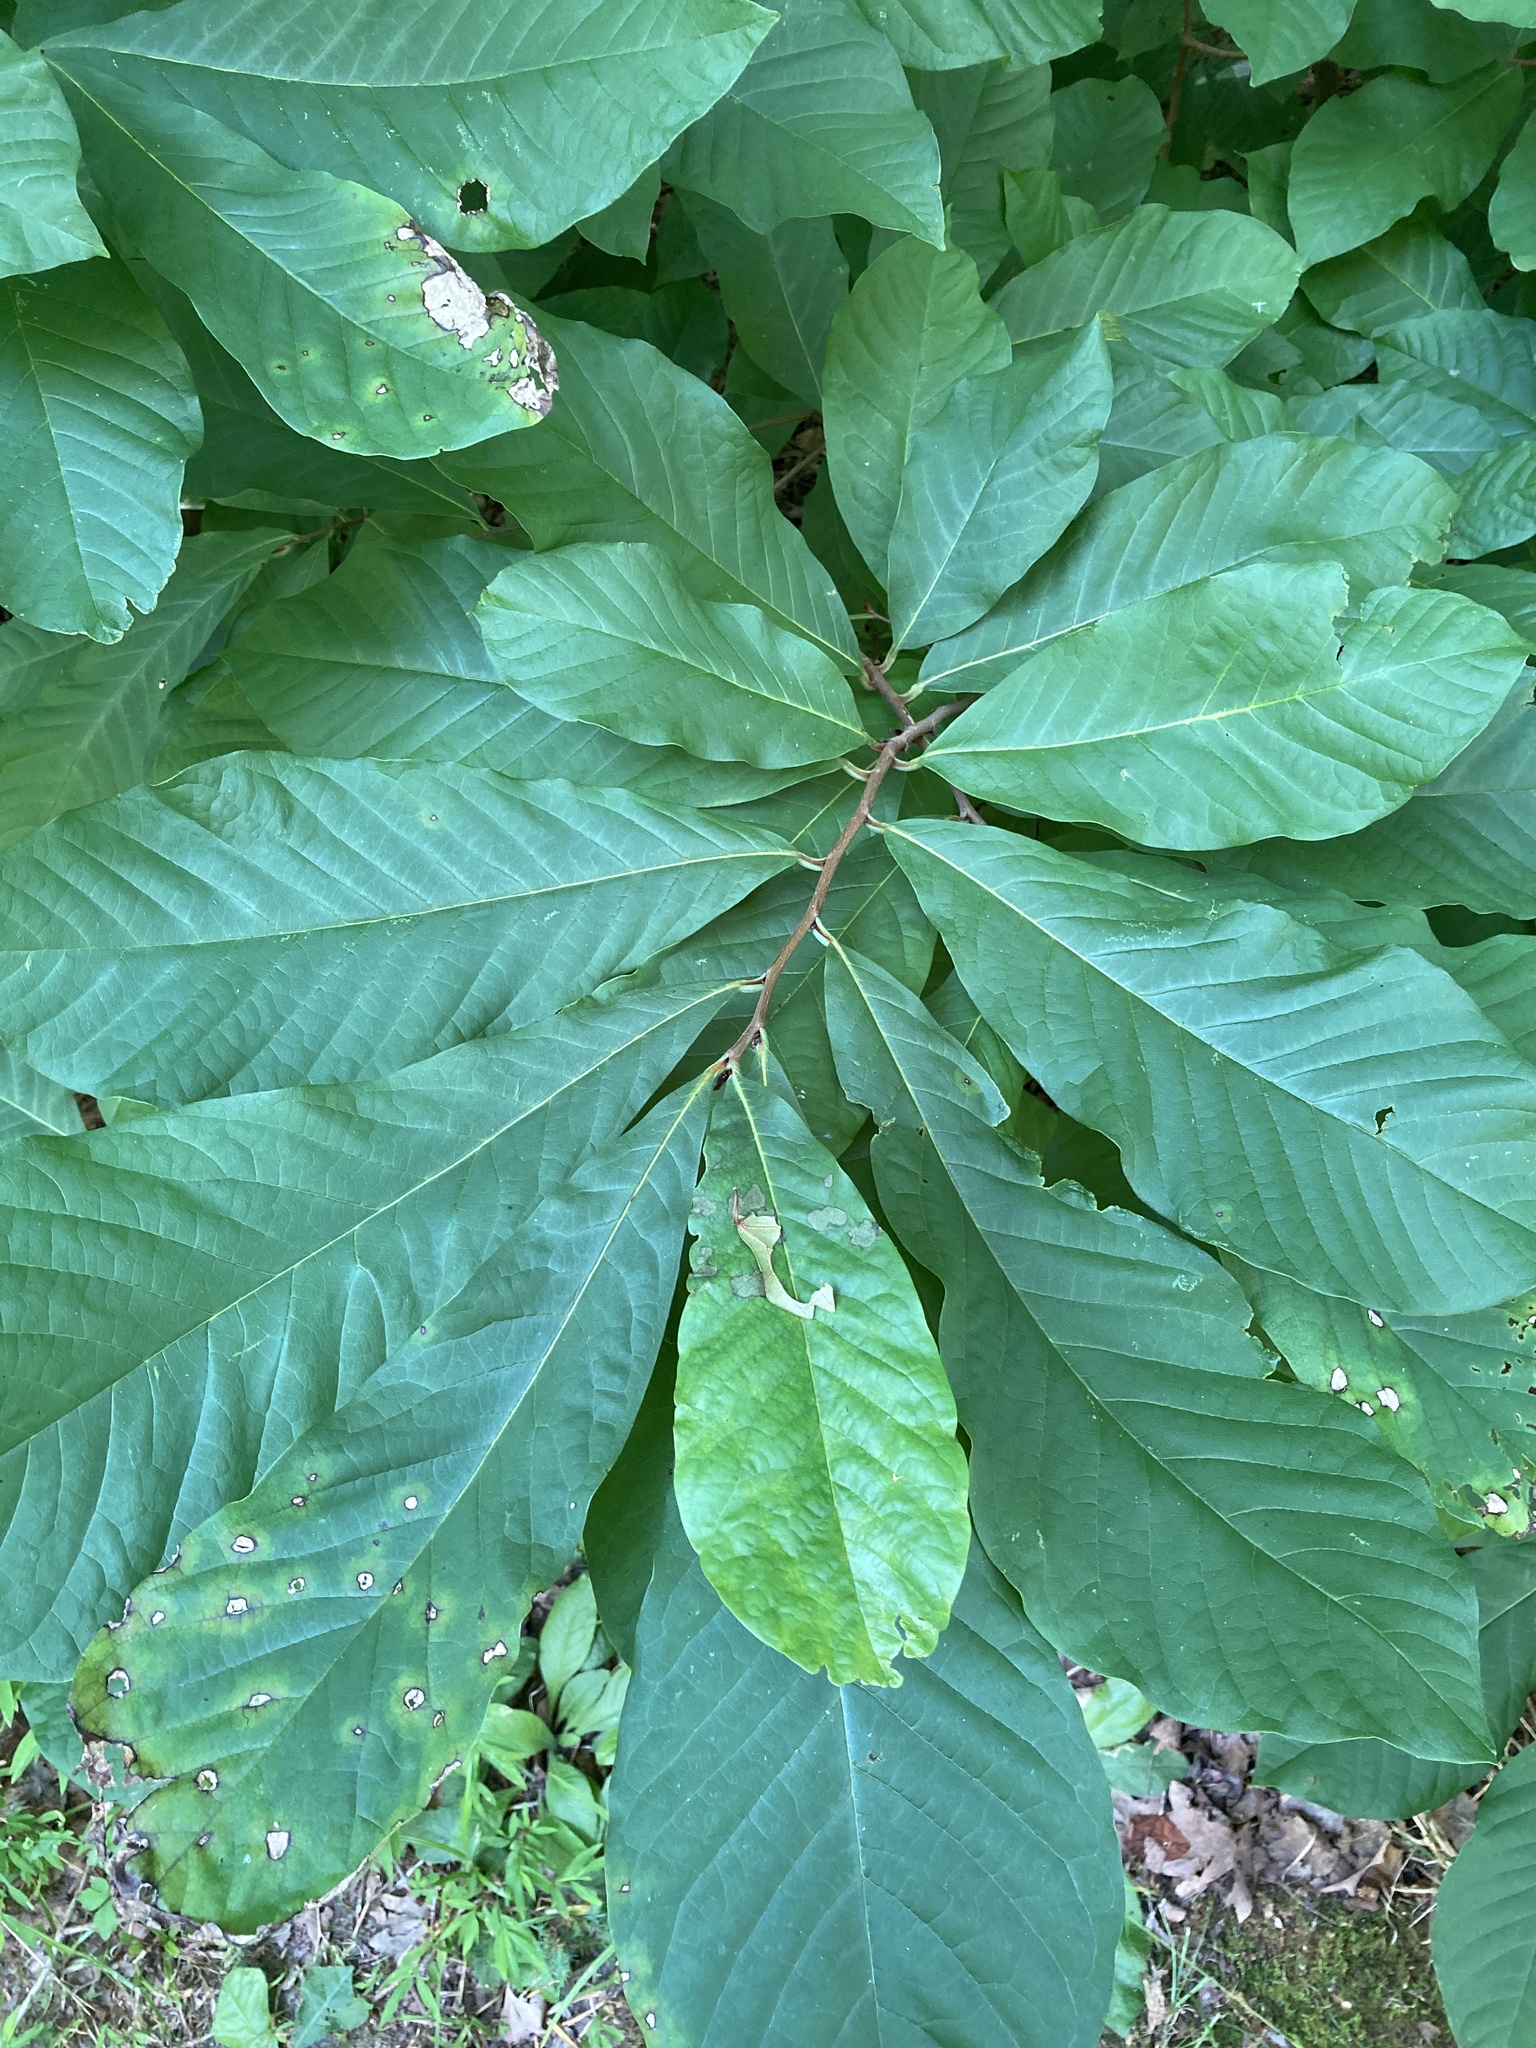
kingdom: Plantae
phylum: Tracheophyta
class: Magnoliopsida
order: Magnoliales
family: Annonaceae
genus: Asimina
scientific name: Asimina triloba
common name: Dog-banana
